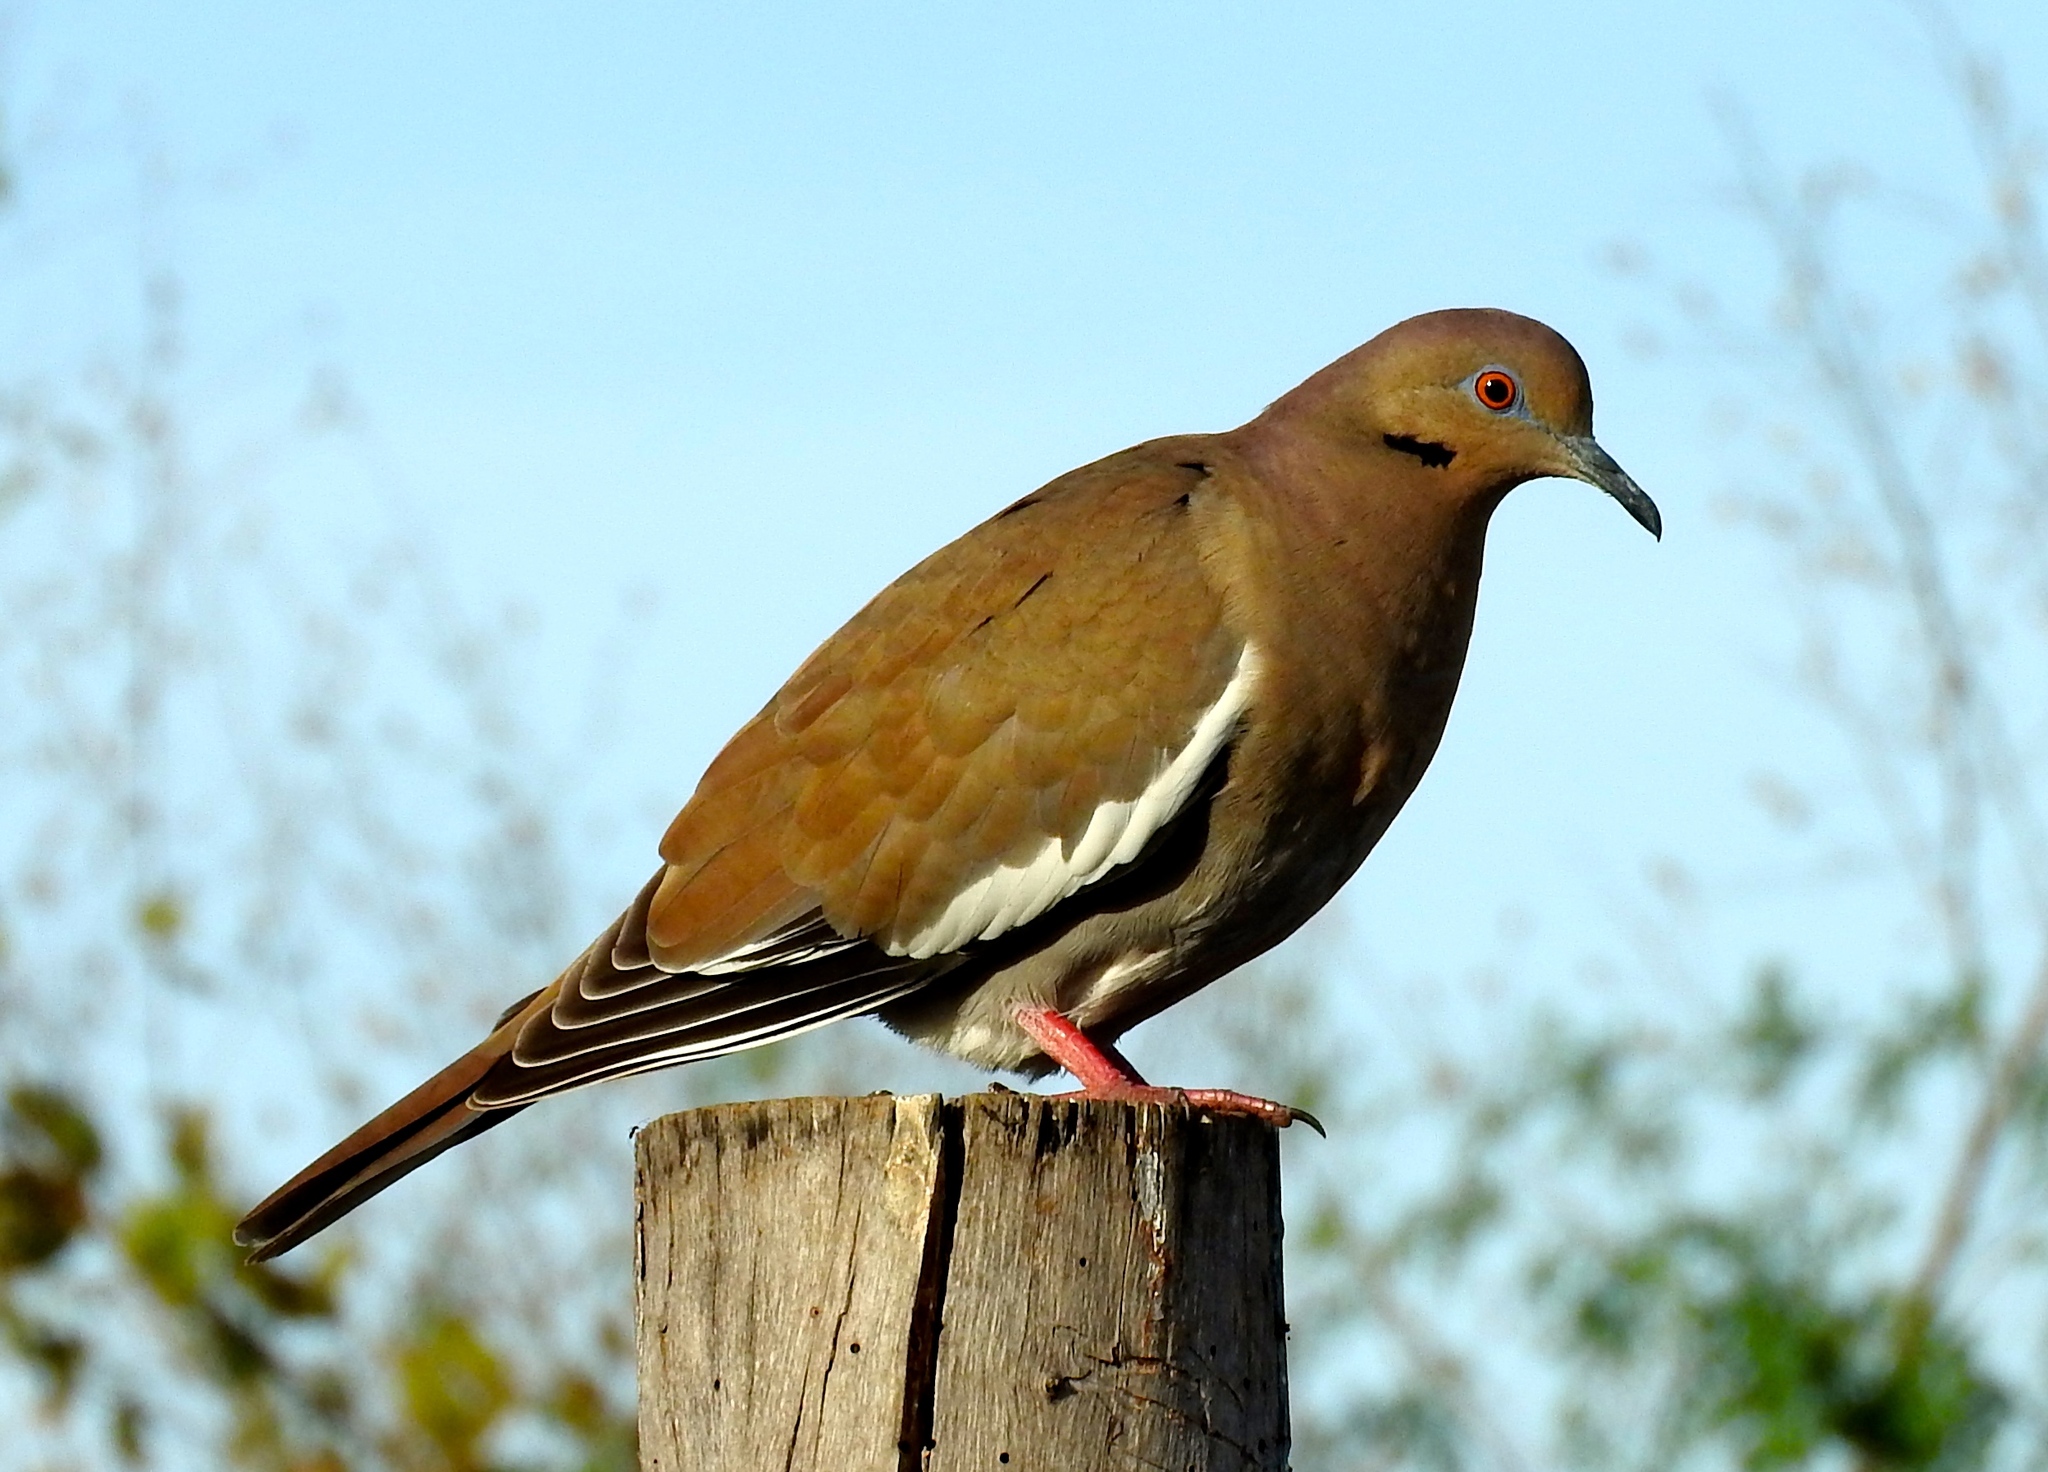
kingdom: Animalia
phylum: Chordata
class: Aves
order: Columbiformes
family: Columbidae
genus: Zenaida
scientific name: Zenaida asiatica
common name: White-winged dove
